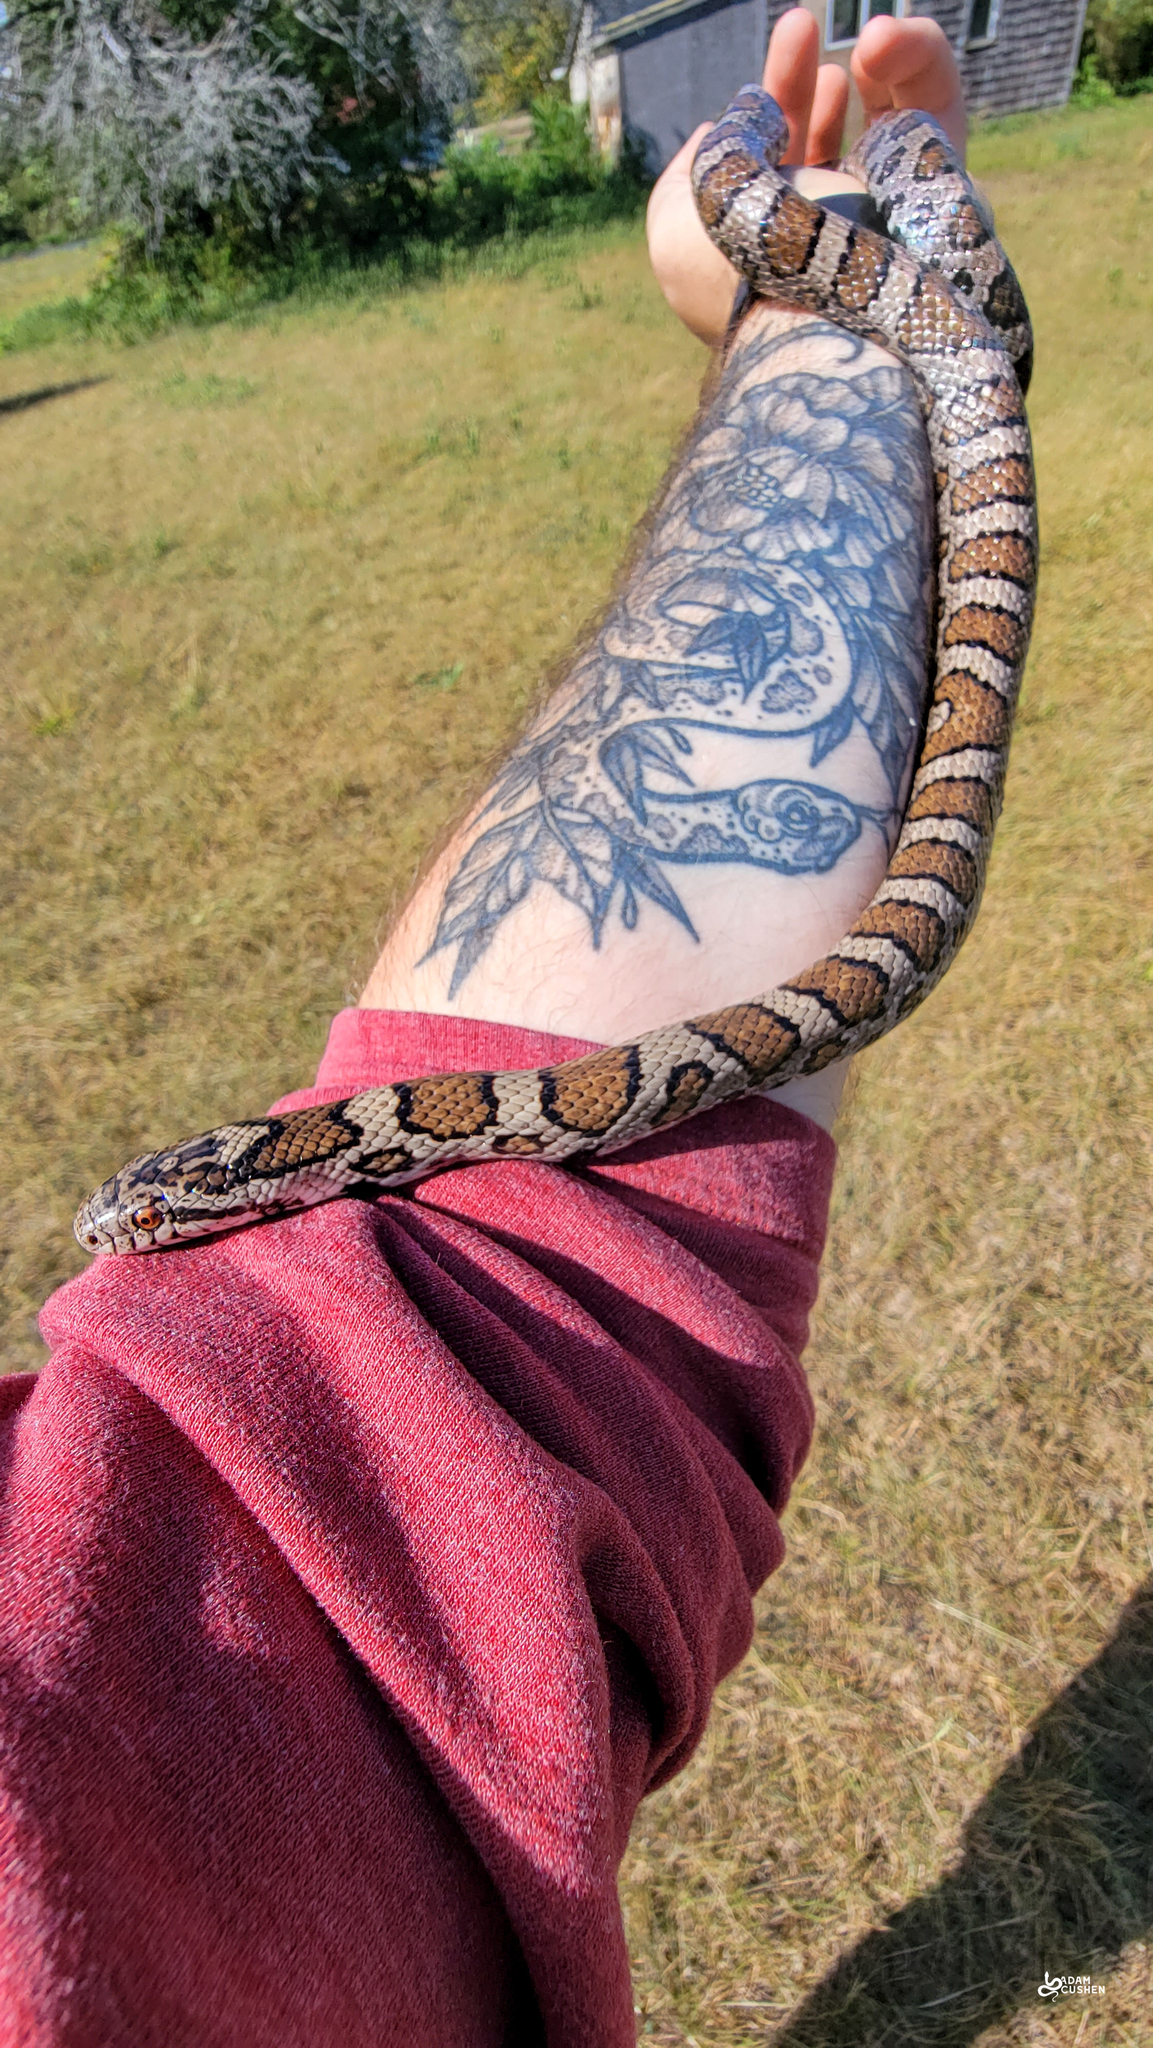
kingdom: Animalia
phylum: Chordata
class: Squamata
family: Colubridae
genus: Lampropeltis
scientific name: Lampropeltis triangulum
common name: Eastern milksnake
